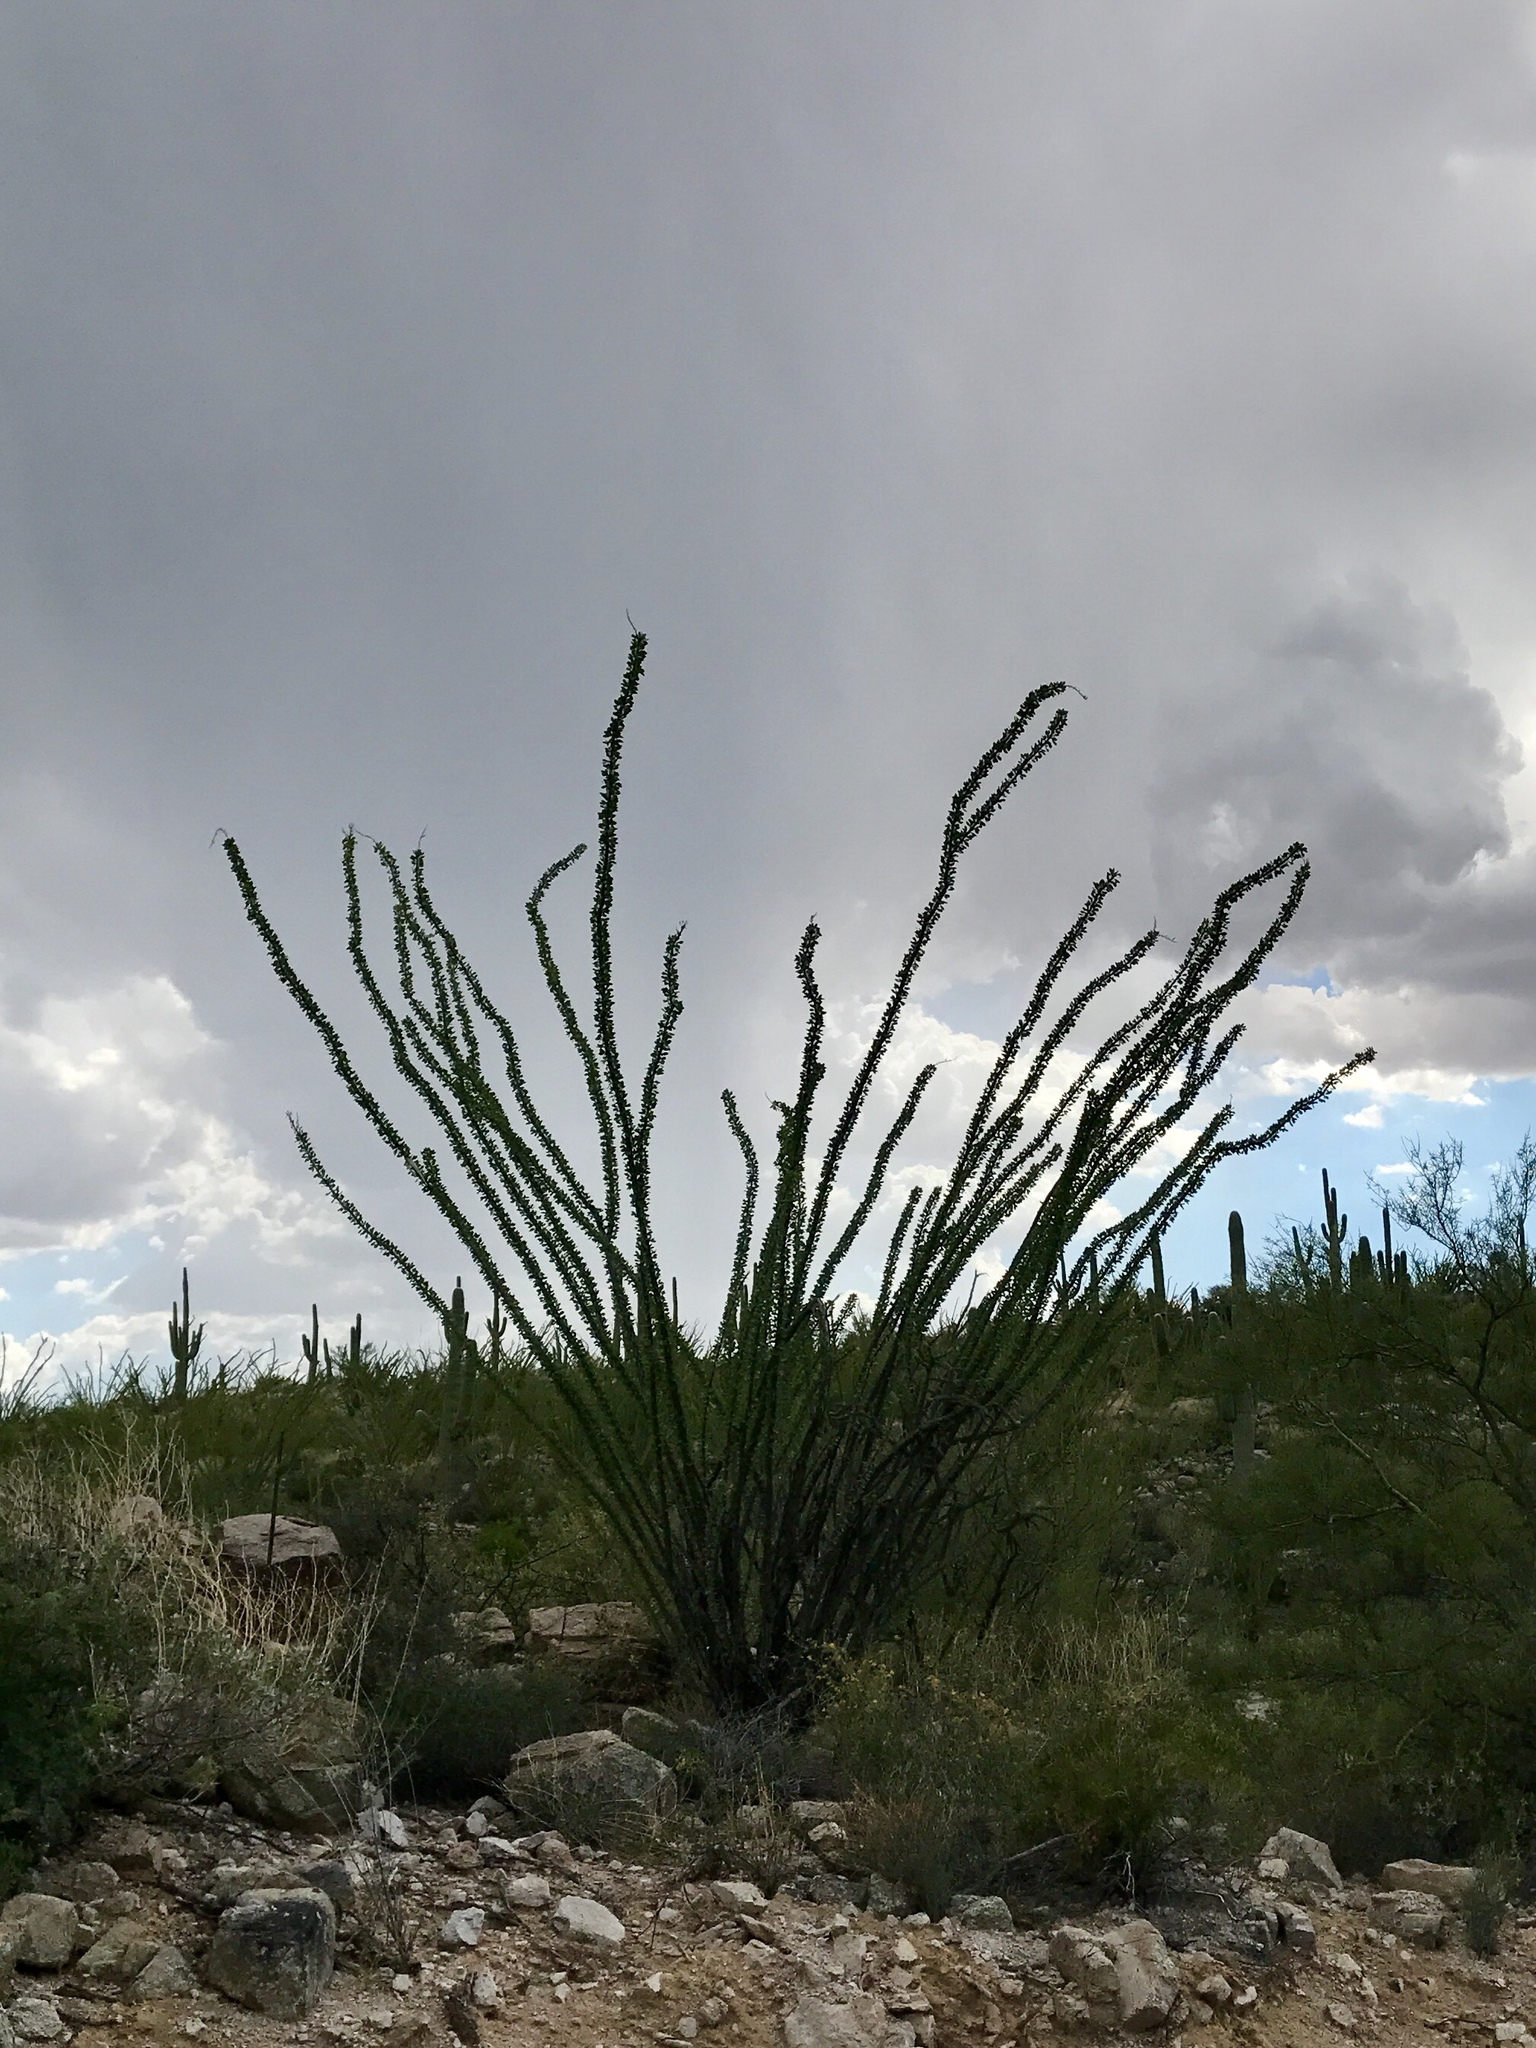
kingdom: Plantae
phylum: Tracheophyta
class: Magnoliopsida
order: Ericales
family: Fouquieriaceae
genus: Fouquieria
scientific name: Fouquieria splendens
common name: Vine-cactus
